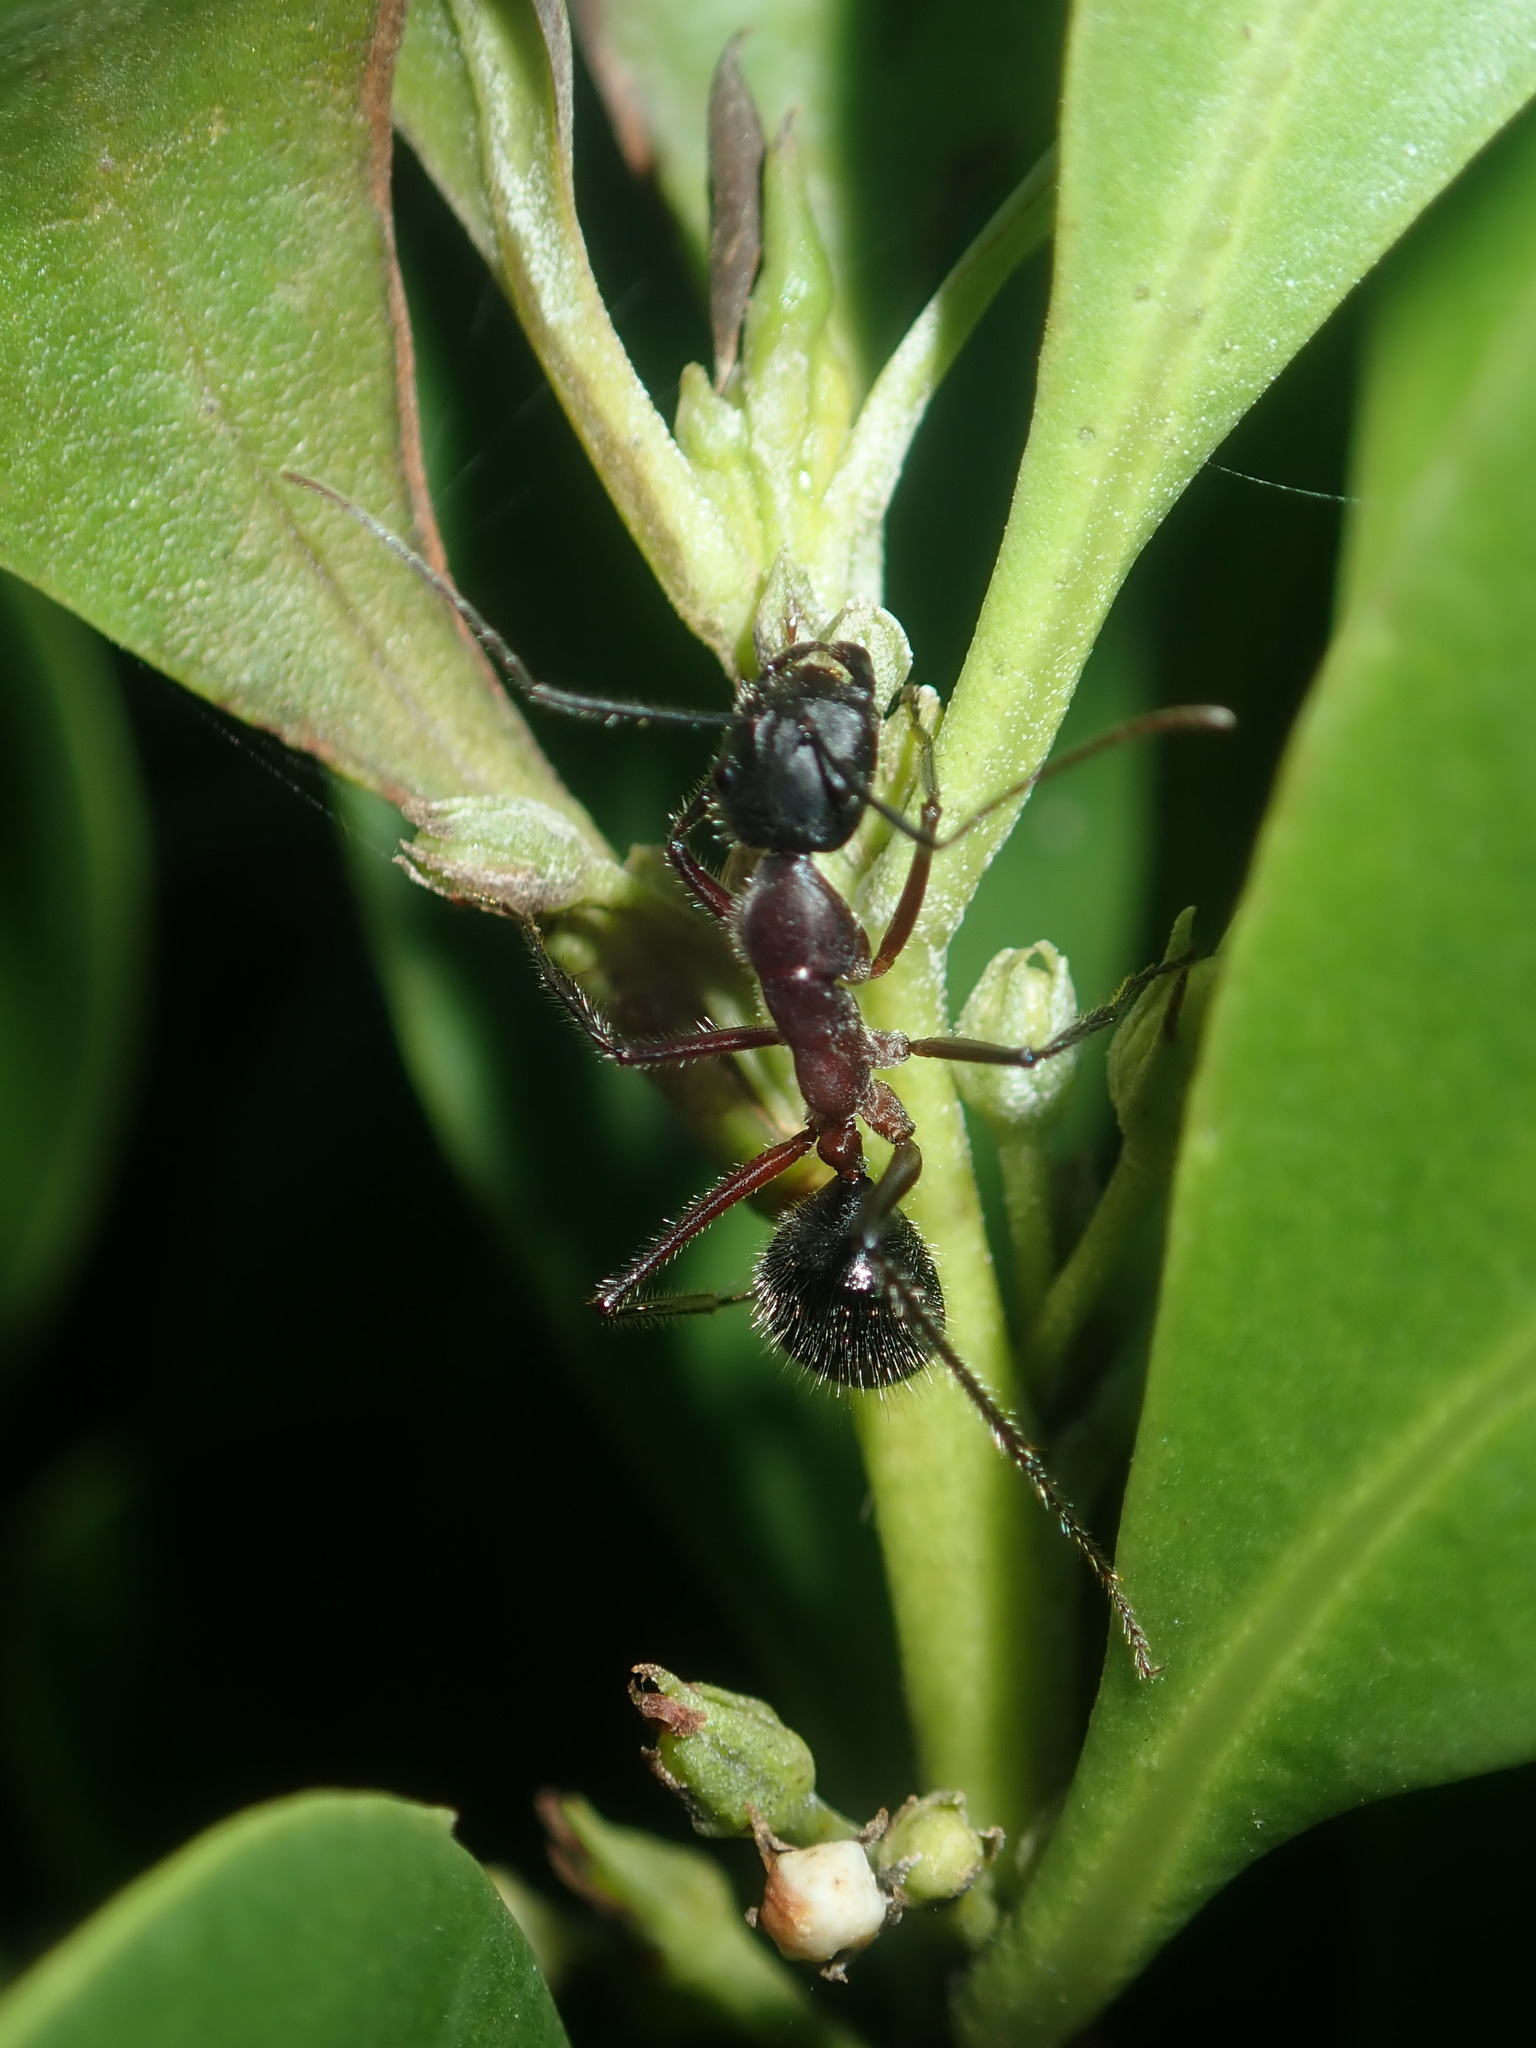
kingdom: Animalia
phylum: Arthropoda
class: Insecta
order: Hymenoptera
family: Formicidae
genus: Camponotus
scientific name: Camponotus intrepidus
